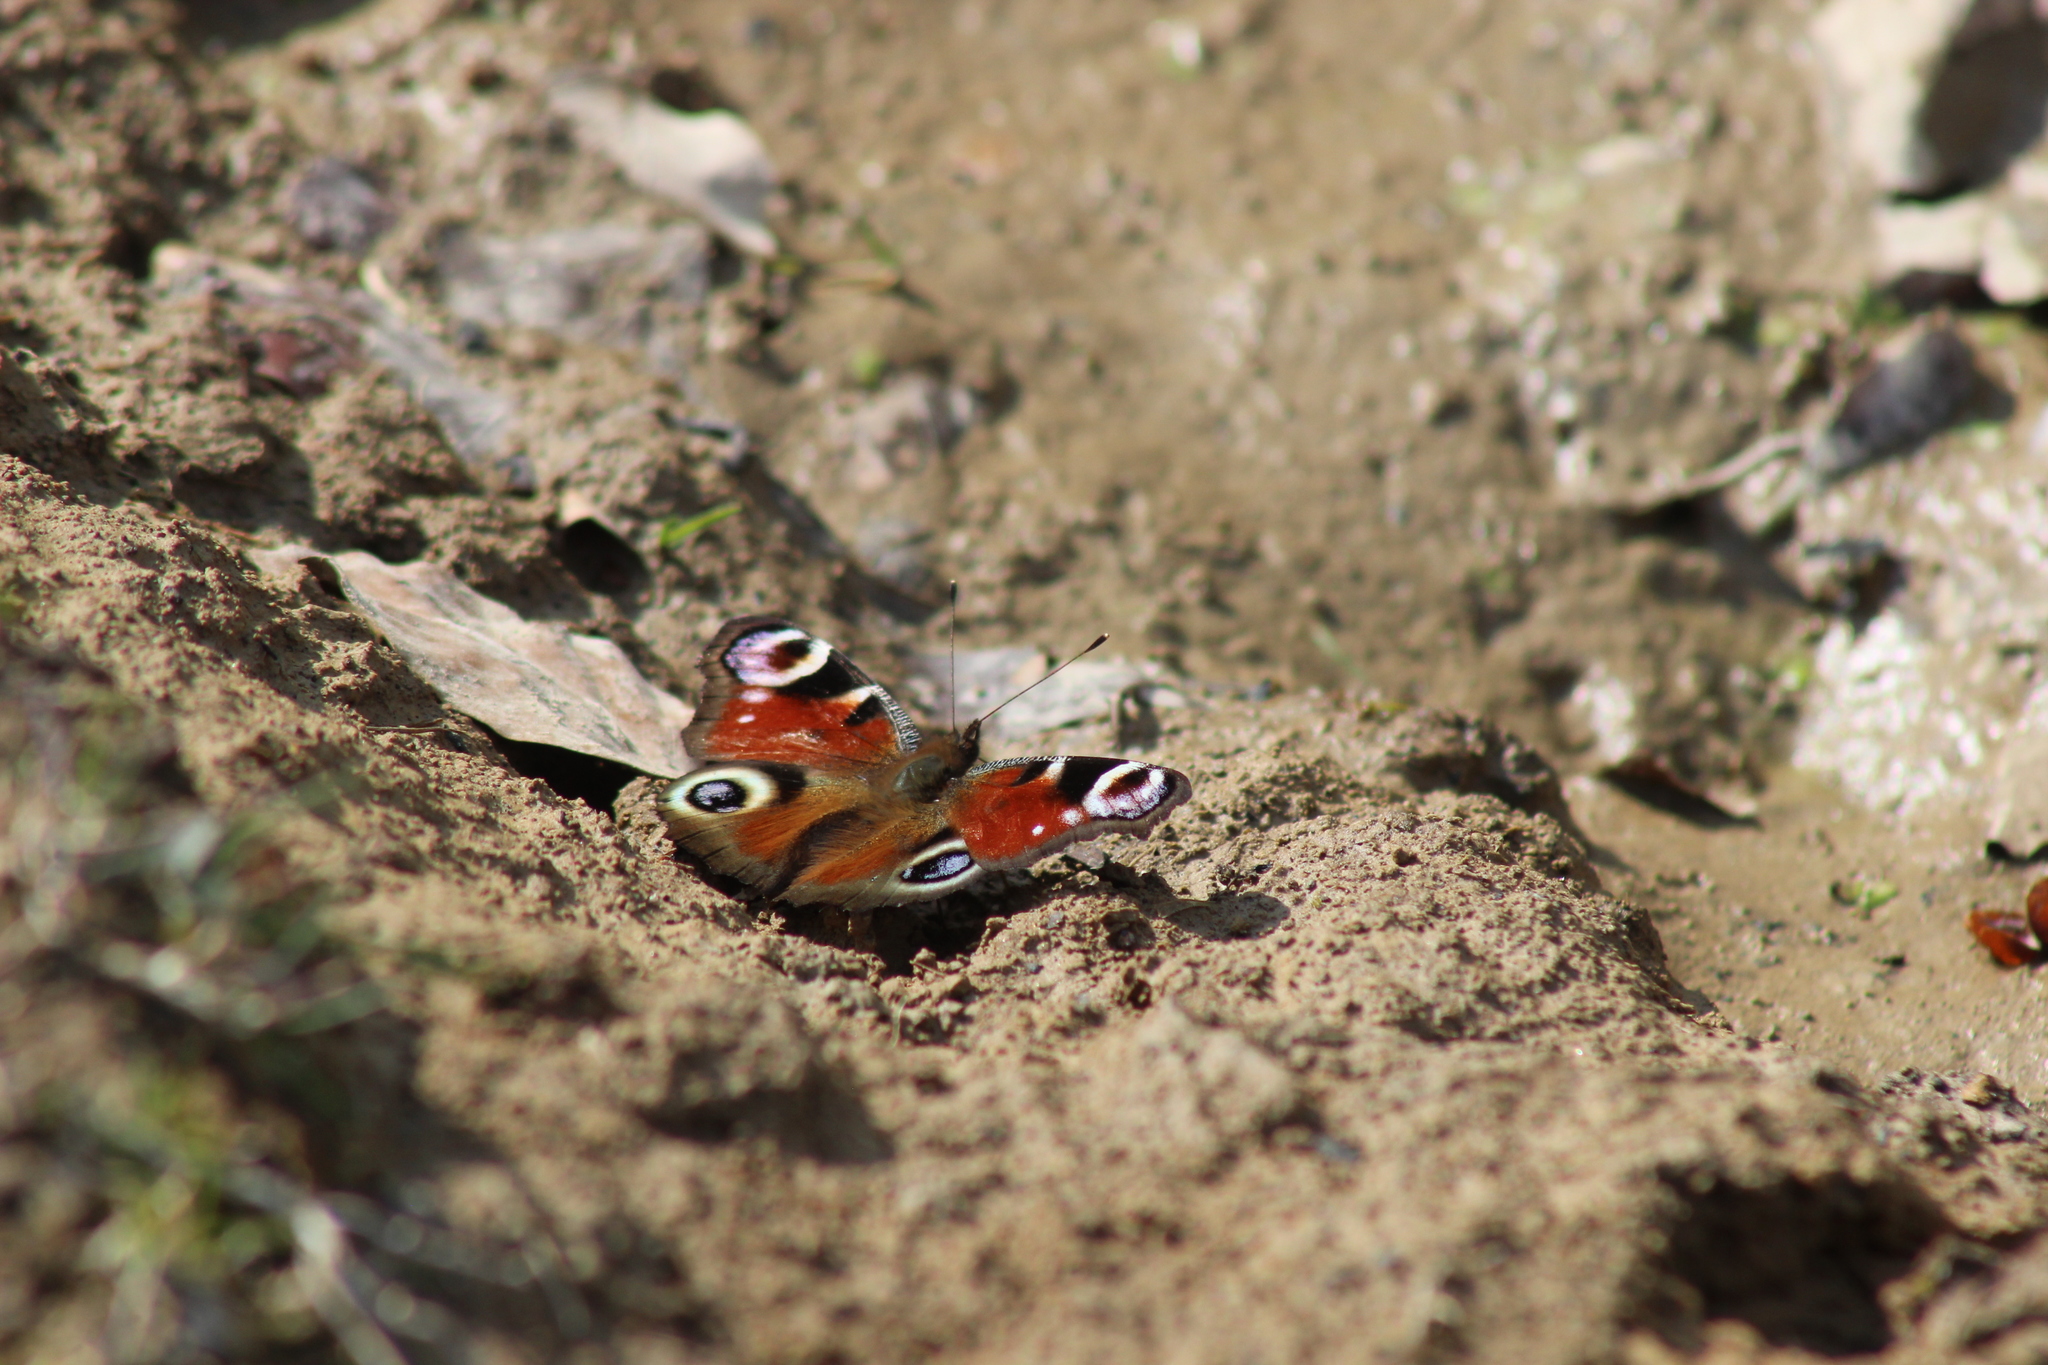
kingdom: Animalia
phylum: Arthropoda
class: Insecta
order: Lepidoptera
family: Nymphalidae
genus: Aglais
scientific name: Aglais io
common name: Peacock
